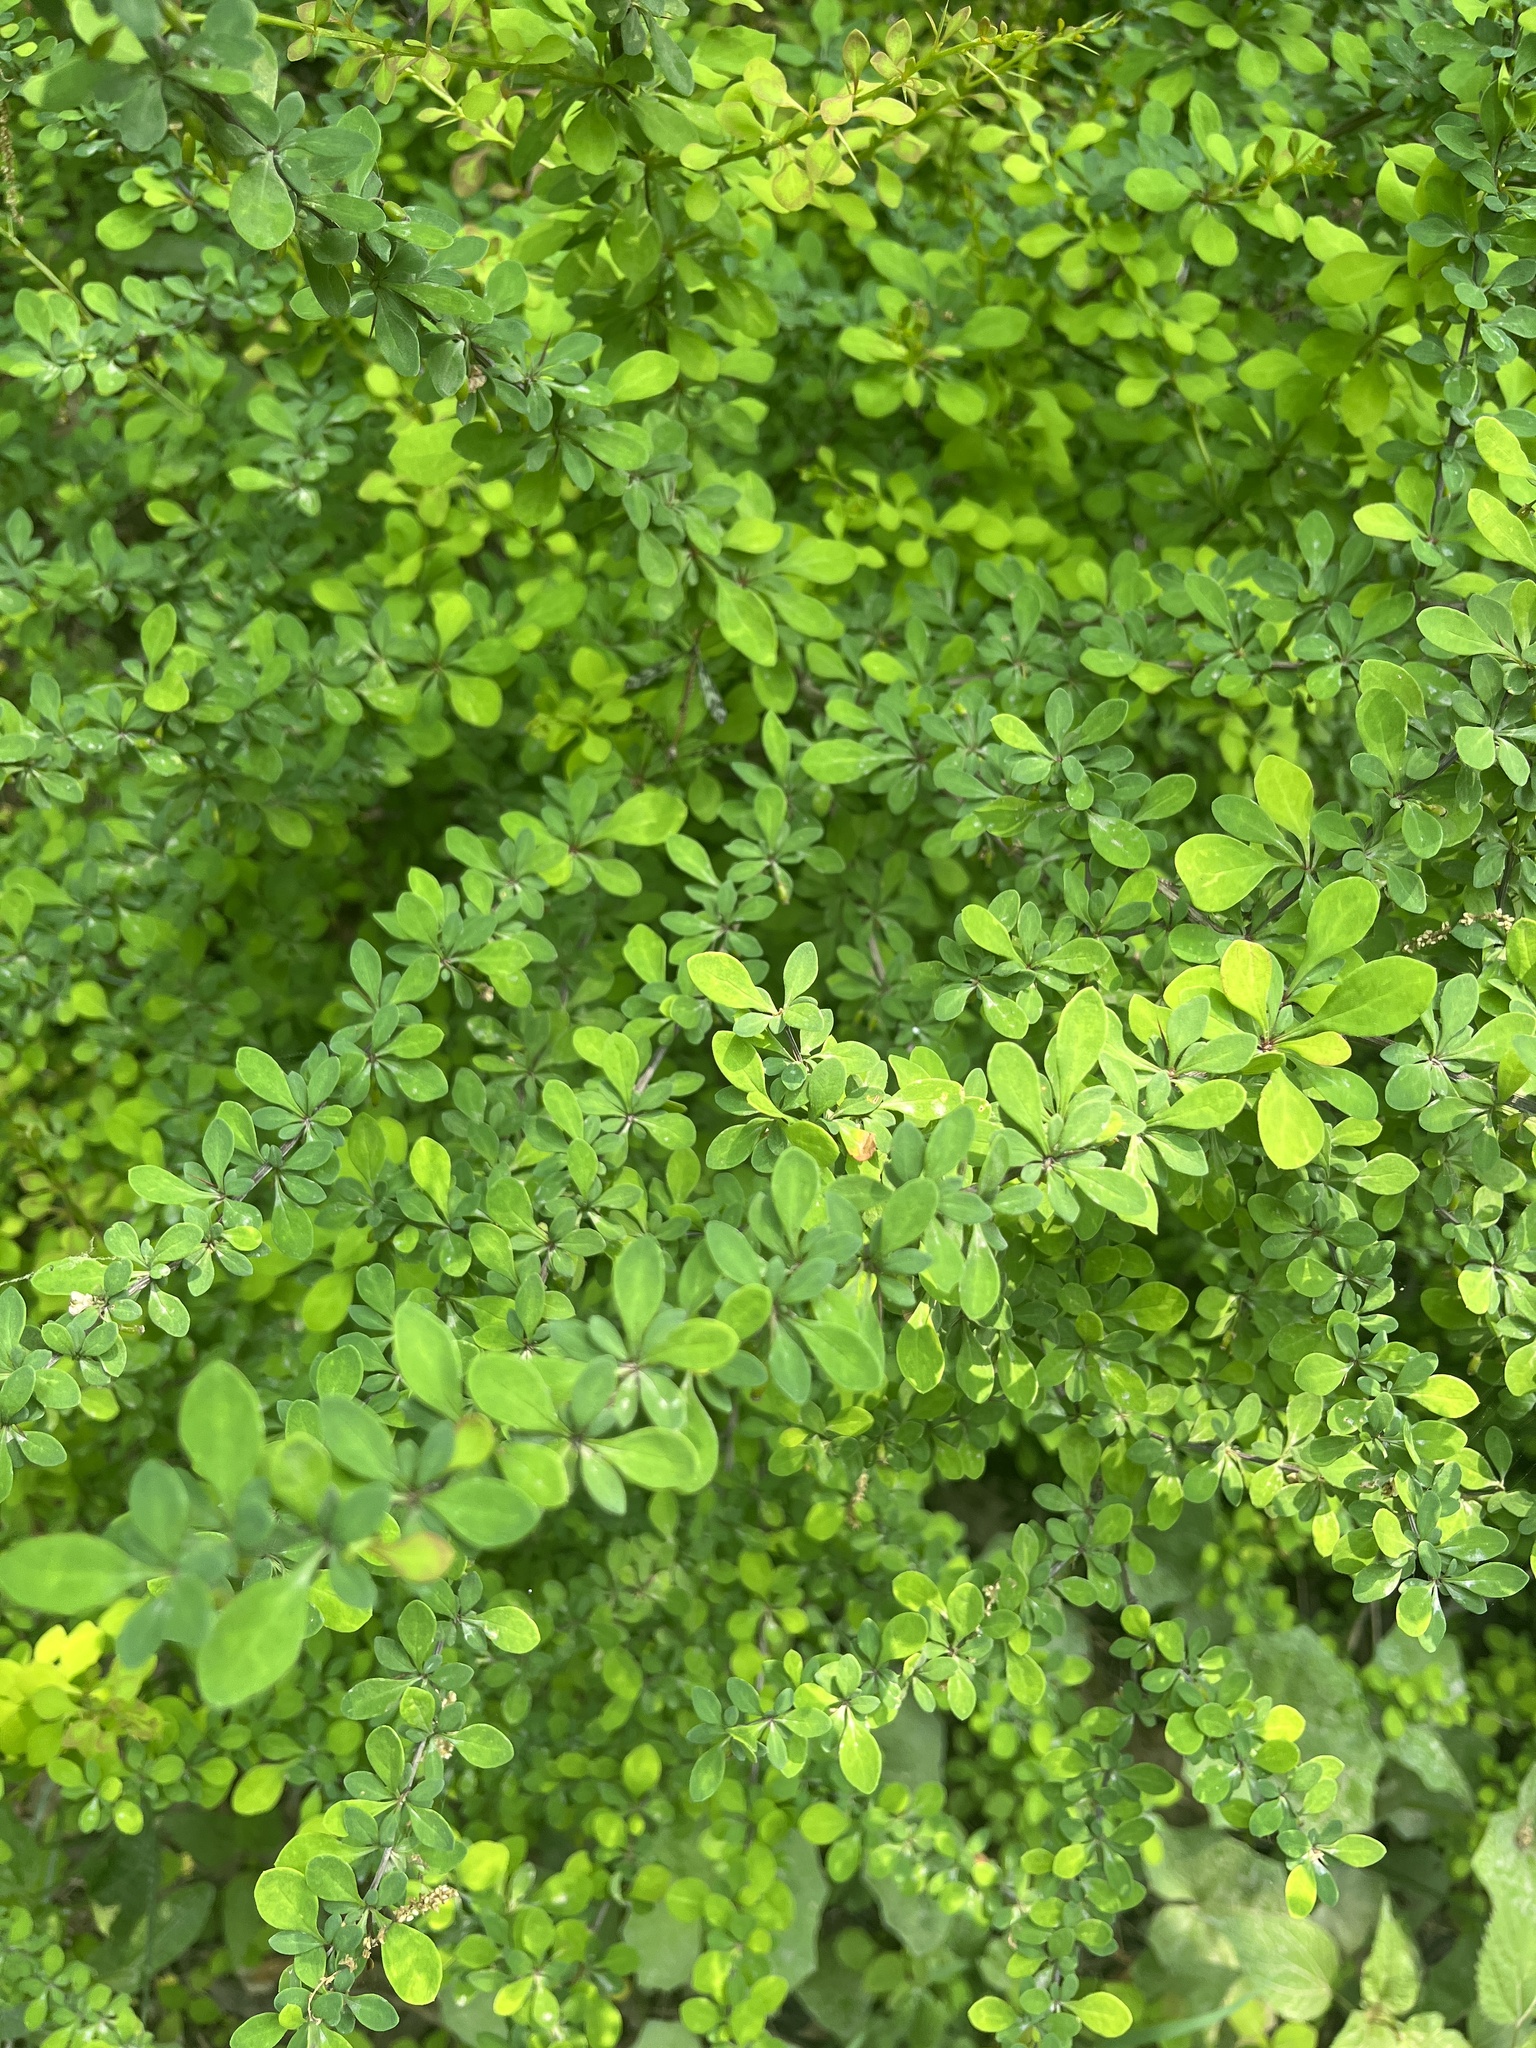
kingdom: Plantae
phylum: Tracheophyta
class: Magnoliopsida
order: Ranunculales
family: Berberidaceae
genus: Berberis
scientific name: Berberis thunbergii
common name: Japanese barberry
